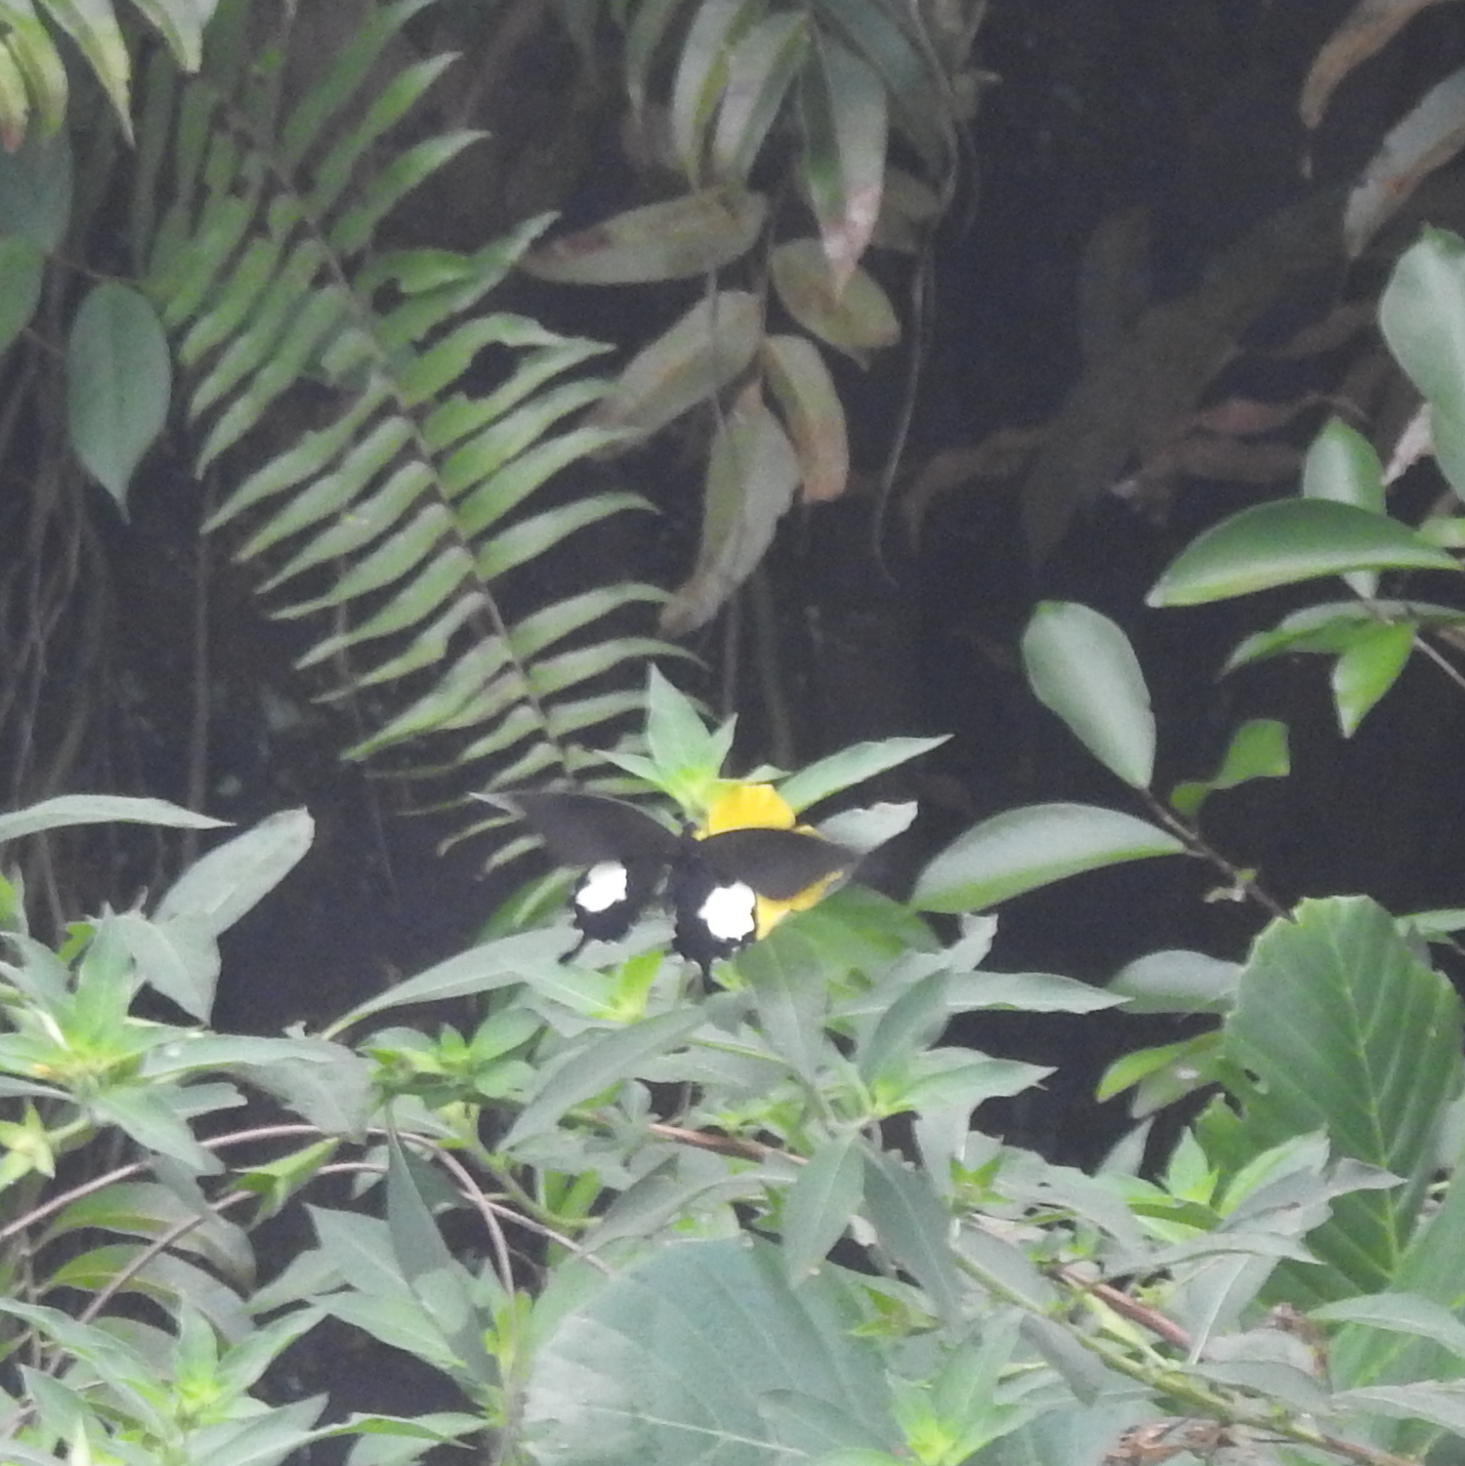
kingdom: Animalia
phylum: Arthropoda
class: Insecta
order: Lepidoptera
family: Papilionidae
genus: Papilio
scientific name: Papilio iswara
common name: Great helen swallowtail
